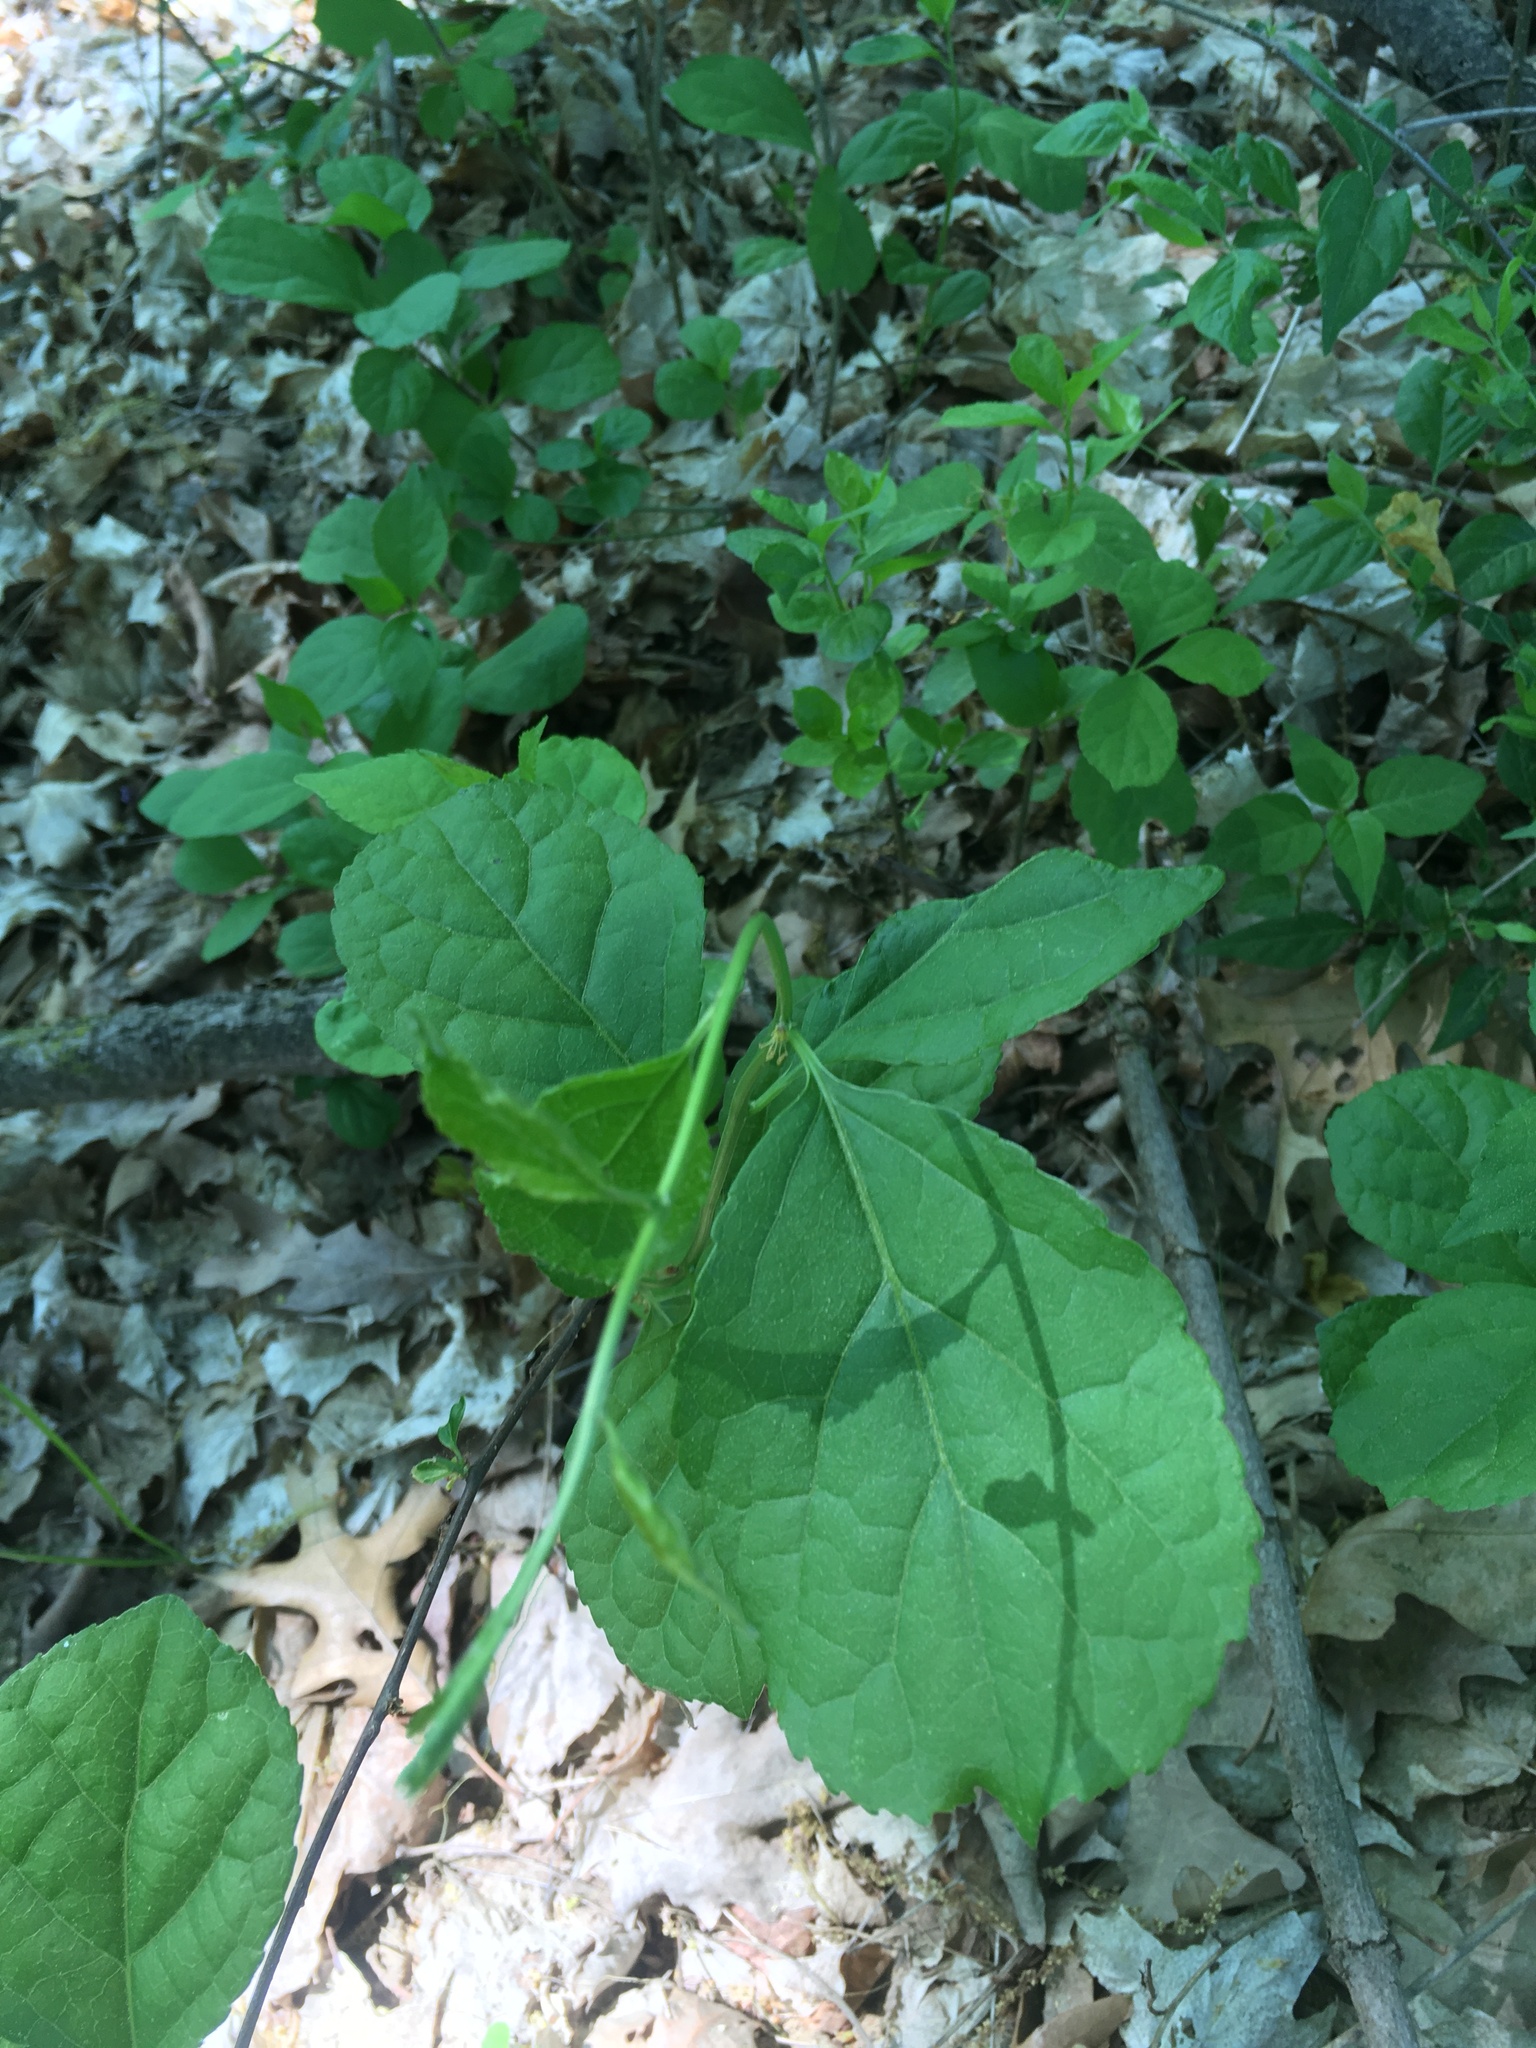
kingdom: Plantae
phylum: Tracheophyta
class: Magnoliopsida
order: Celastrales
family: Celastraceae
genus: Celastrus
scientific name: Celastrus orbiculatus
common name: Oriental bittersweet
